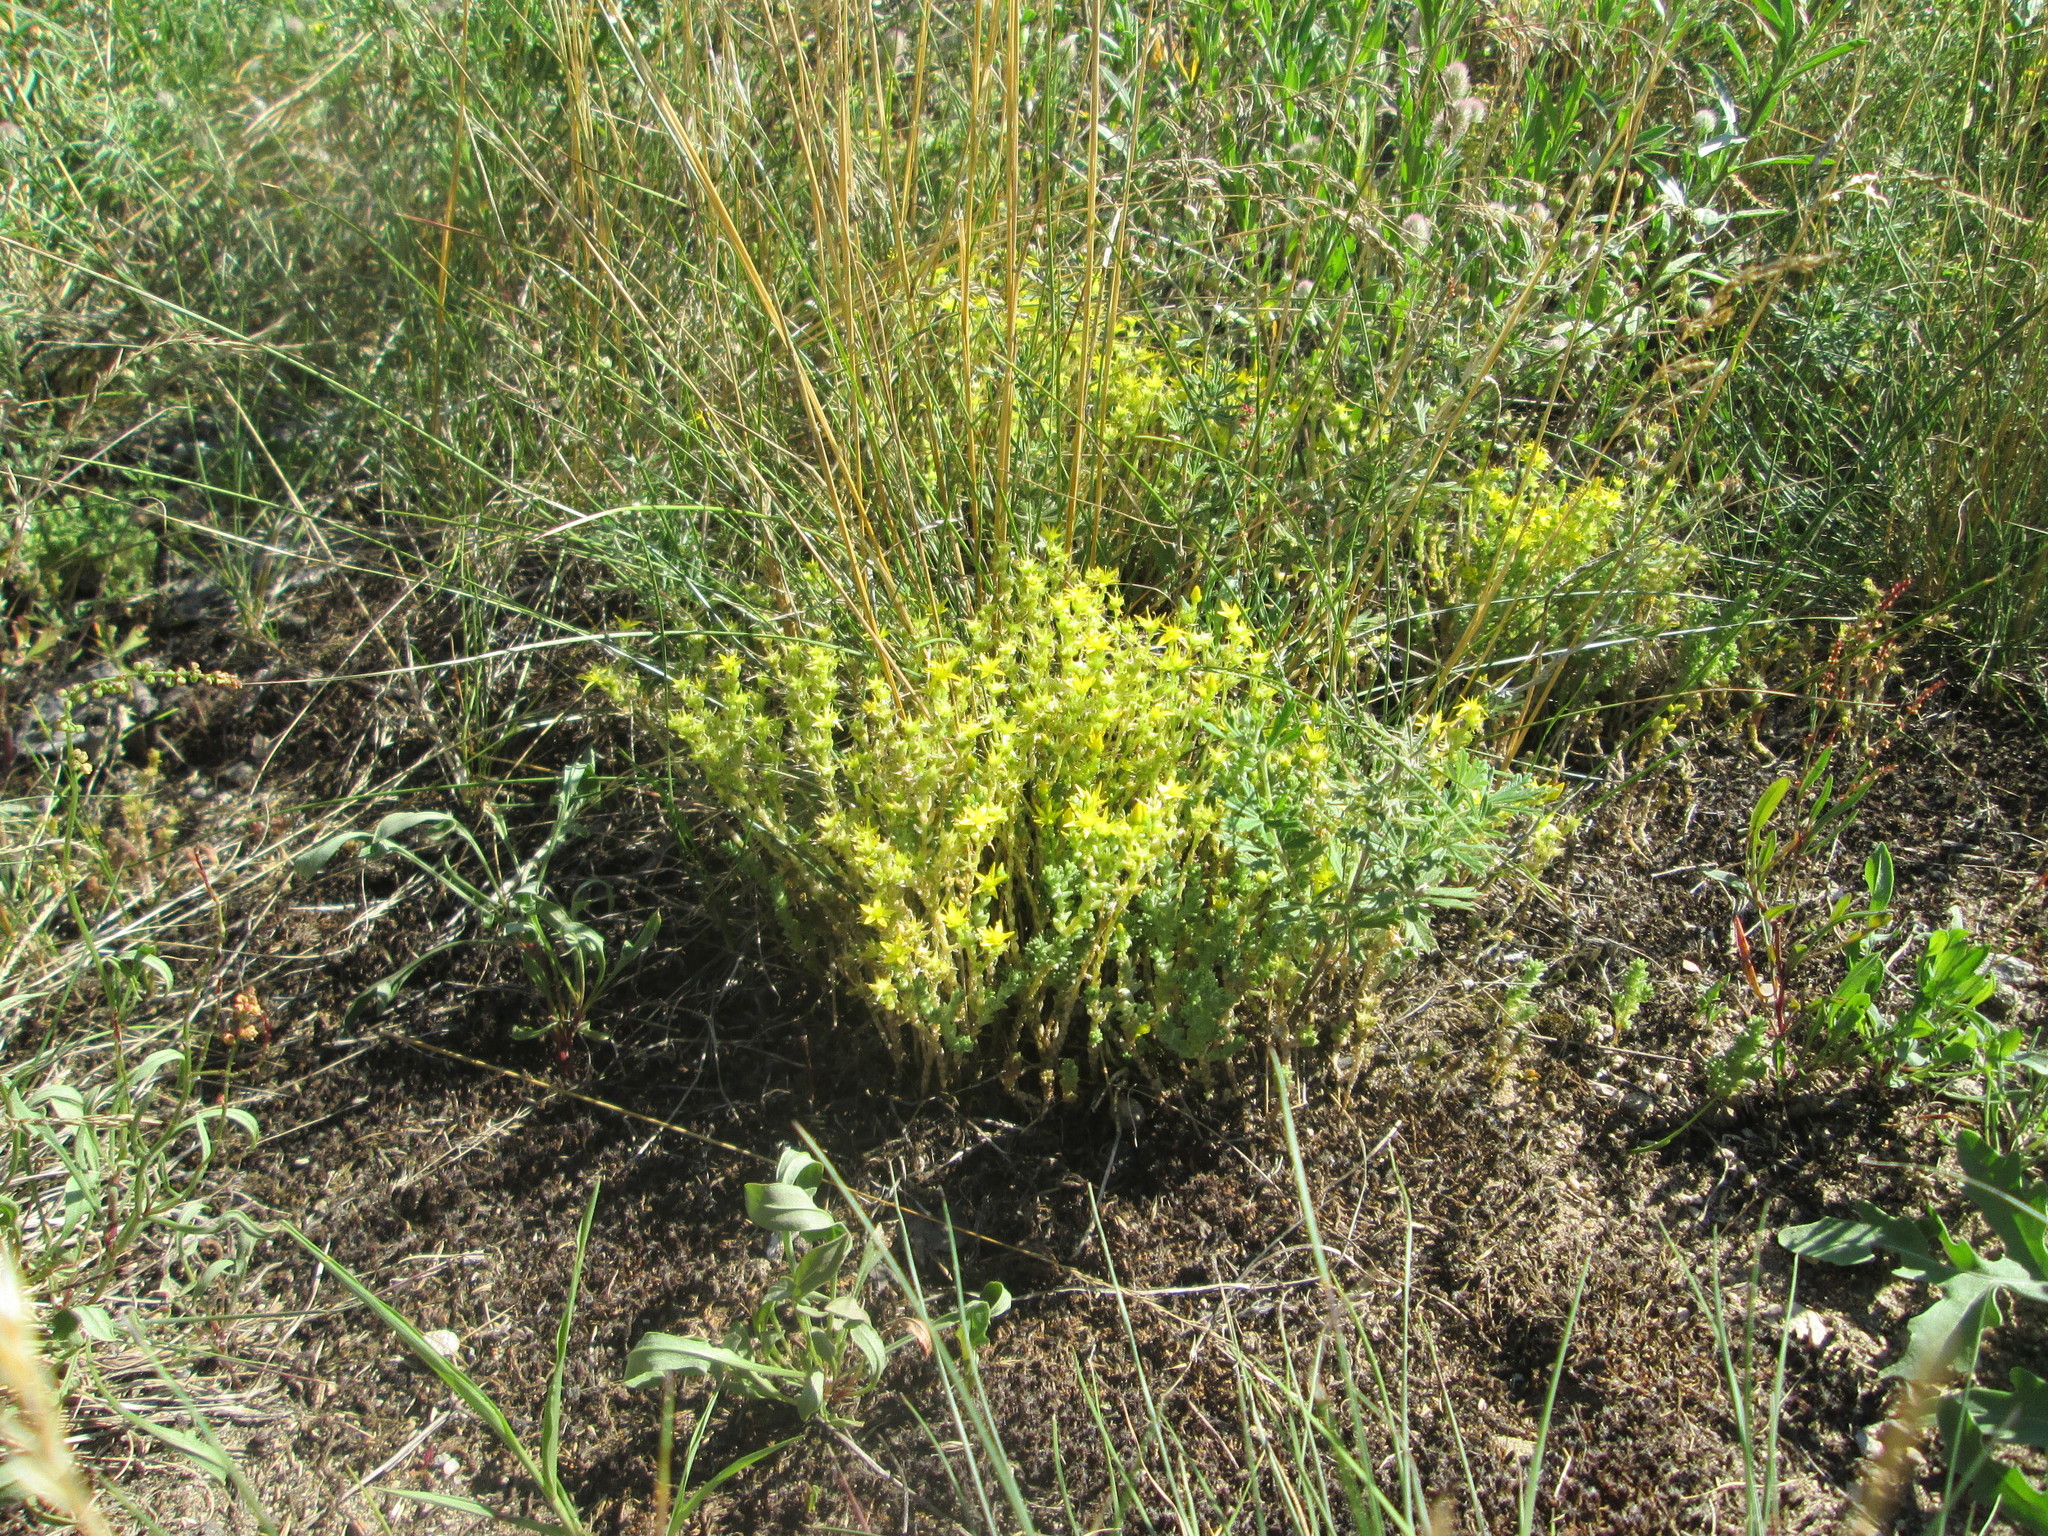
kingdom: Plantae
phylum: Tracheophyta
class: Magnoliopsida
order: Saxifragales
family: Crassulaceae
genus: Sedum
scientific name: Sedum acre
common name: Biting stonecrop
